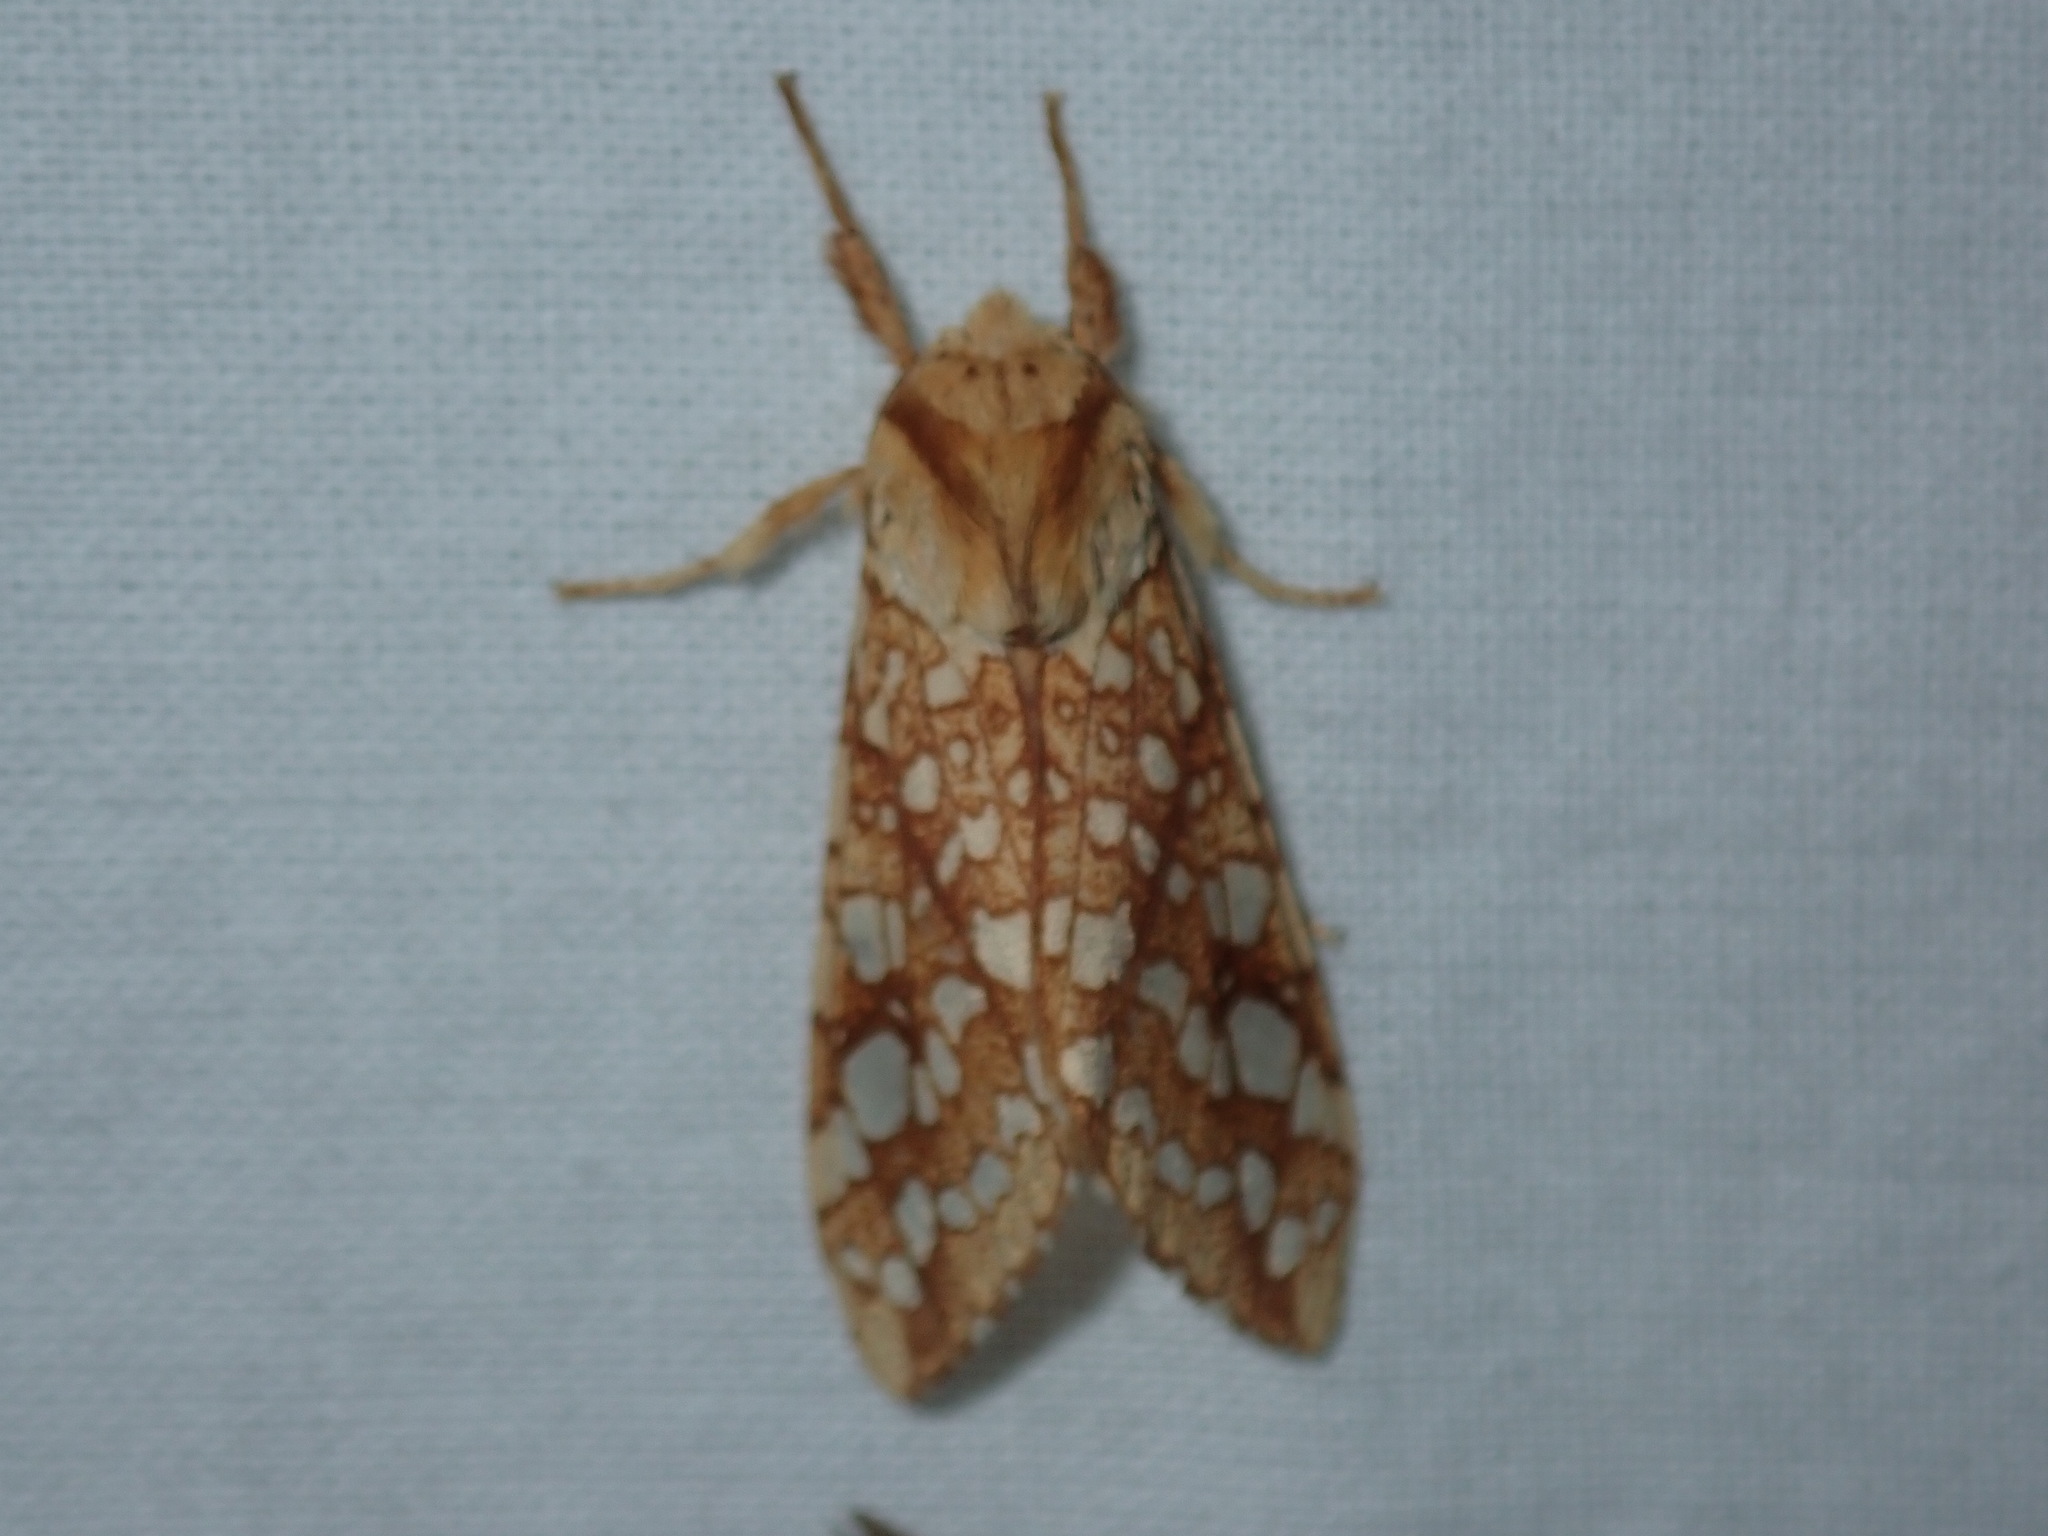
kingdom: Animalia
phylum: Arthropoda
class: Insecta
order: Lepidoptera
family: Erebidae
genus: Lophocampa
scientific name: Lophocampa caryae
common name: Hickory tussock moth
